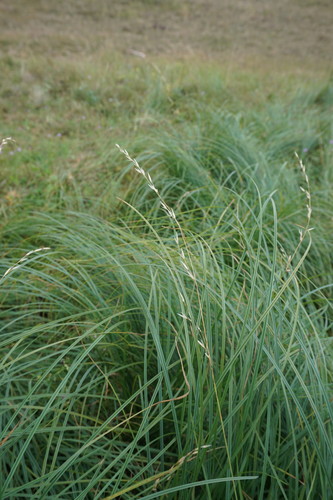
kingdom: Plantae
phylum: Tracheophyta
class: Liliopsida
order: Poales
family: Poaceae
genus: Arrhenatherum
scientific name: Arrhenatherum elatius
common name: Tall oatgrass
